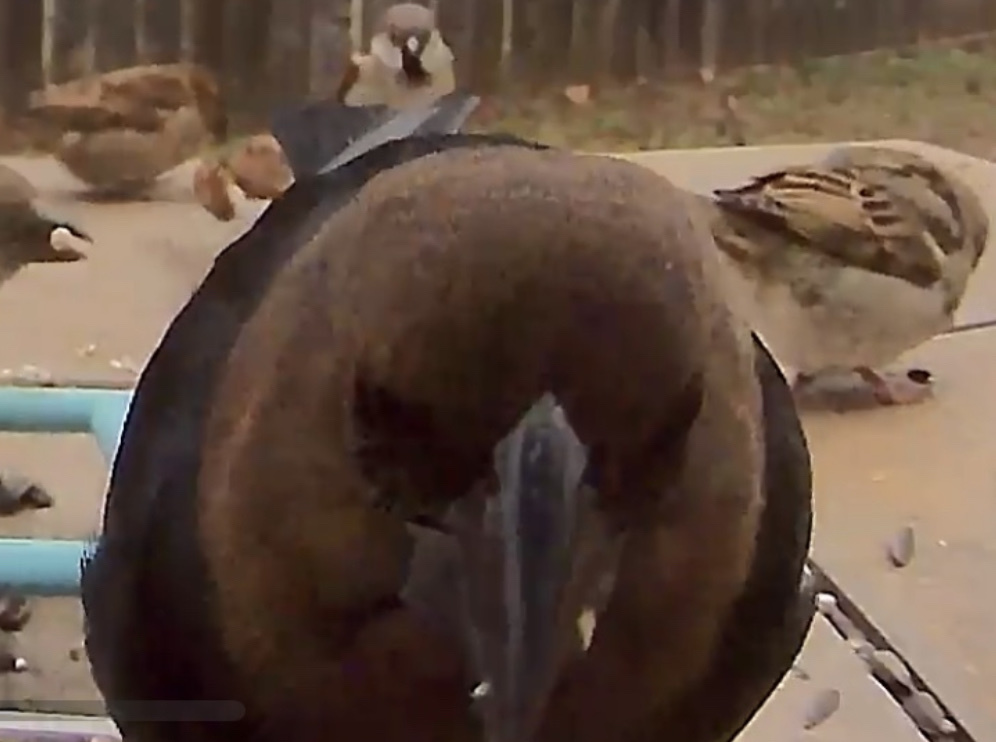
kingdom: Animalia
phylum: Chordata
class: Aves
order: Passeriformes
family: Icteridae
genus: Molothrus
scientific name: Molothrus ater
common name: Brown-headed cowbird
